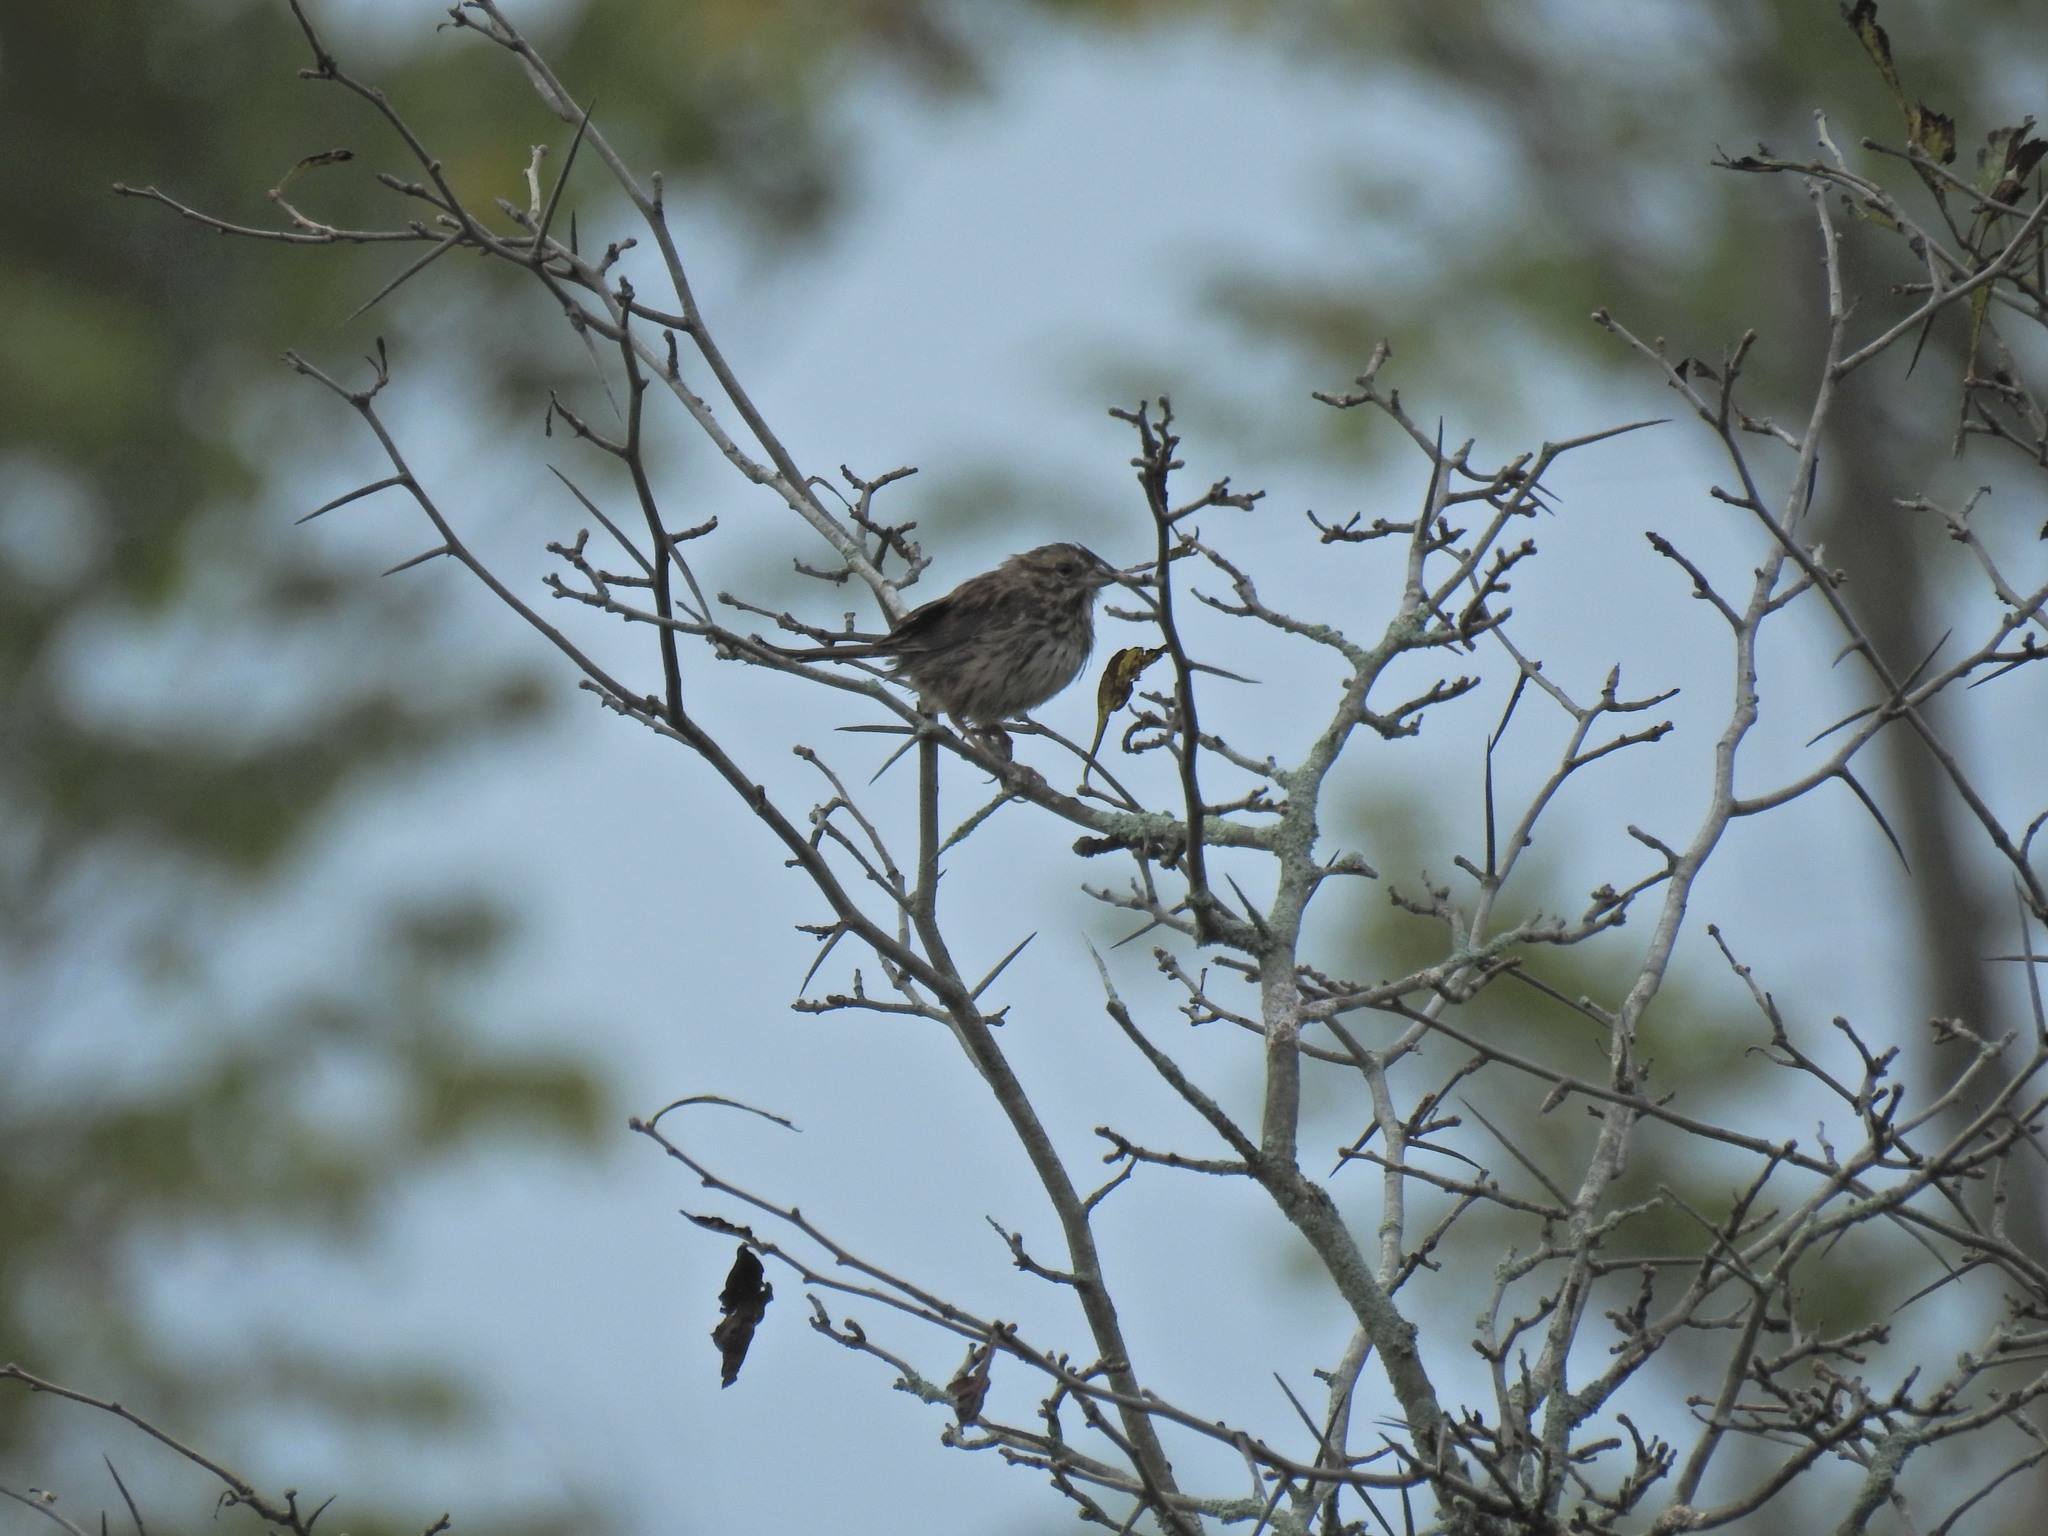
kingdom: Animalia
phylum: Chordata
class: Aves
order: Passeriformes
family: Passerellidae
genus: Melospiza
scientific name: Melospiza melodia
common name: Song sparrow
